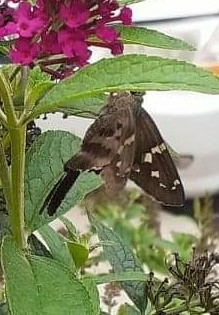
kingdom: Animalia
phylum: Arthropoda
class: Insecta
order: Lepidoptera
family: Hesperiidae
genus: Urbanus
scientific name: Urbanus proteus
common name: Long-tailed skipper
